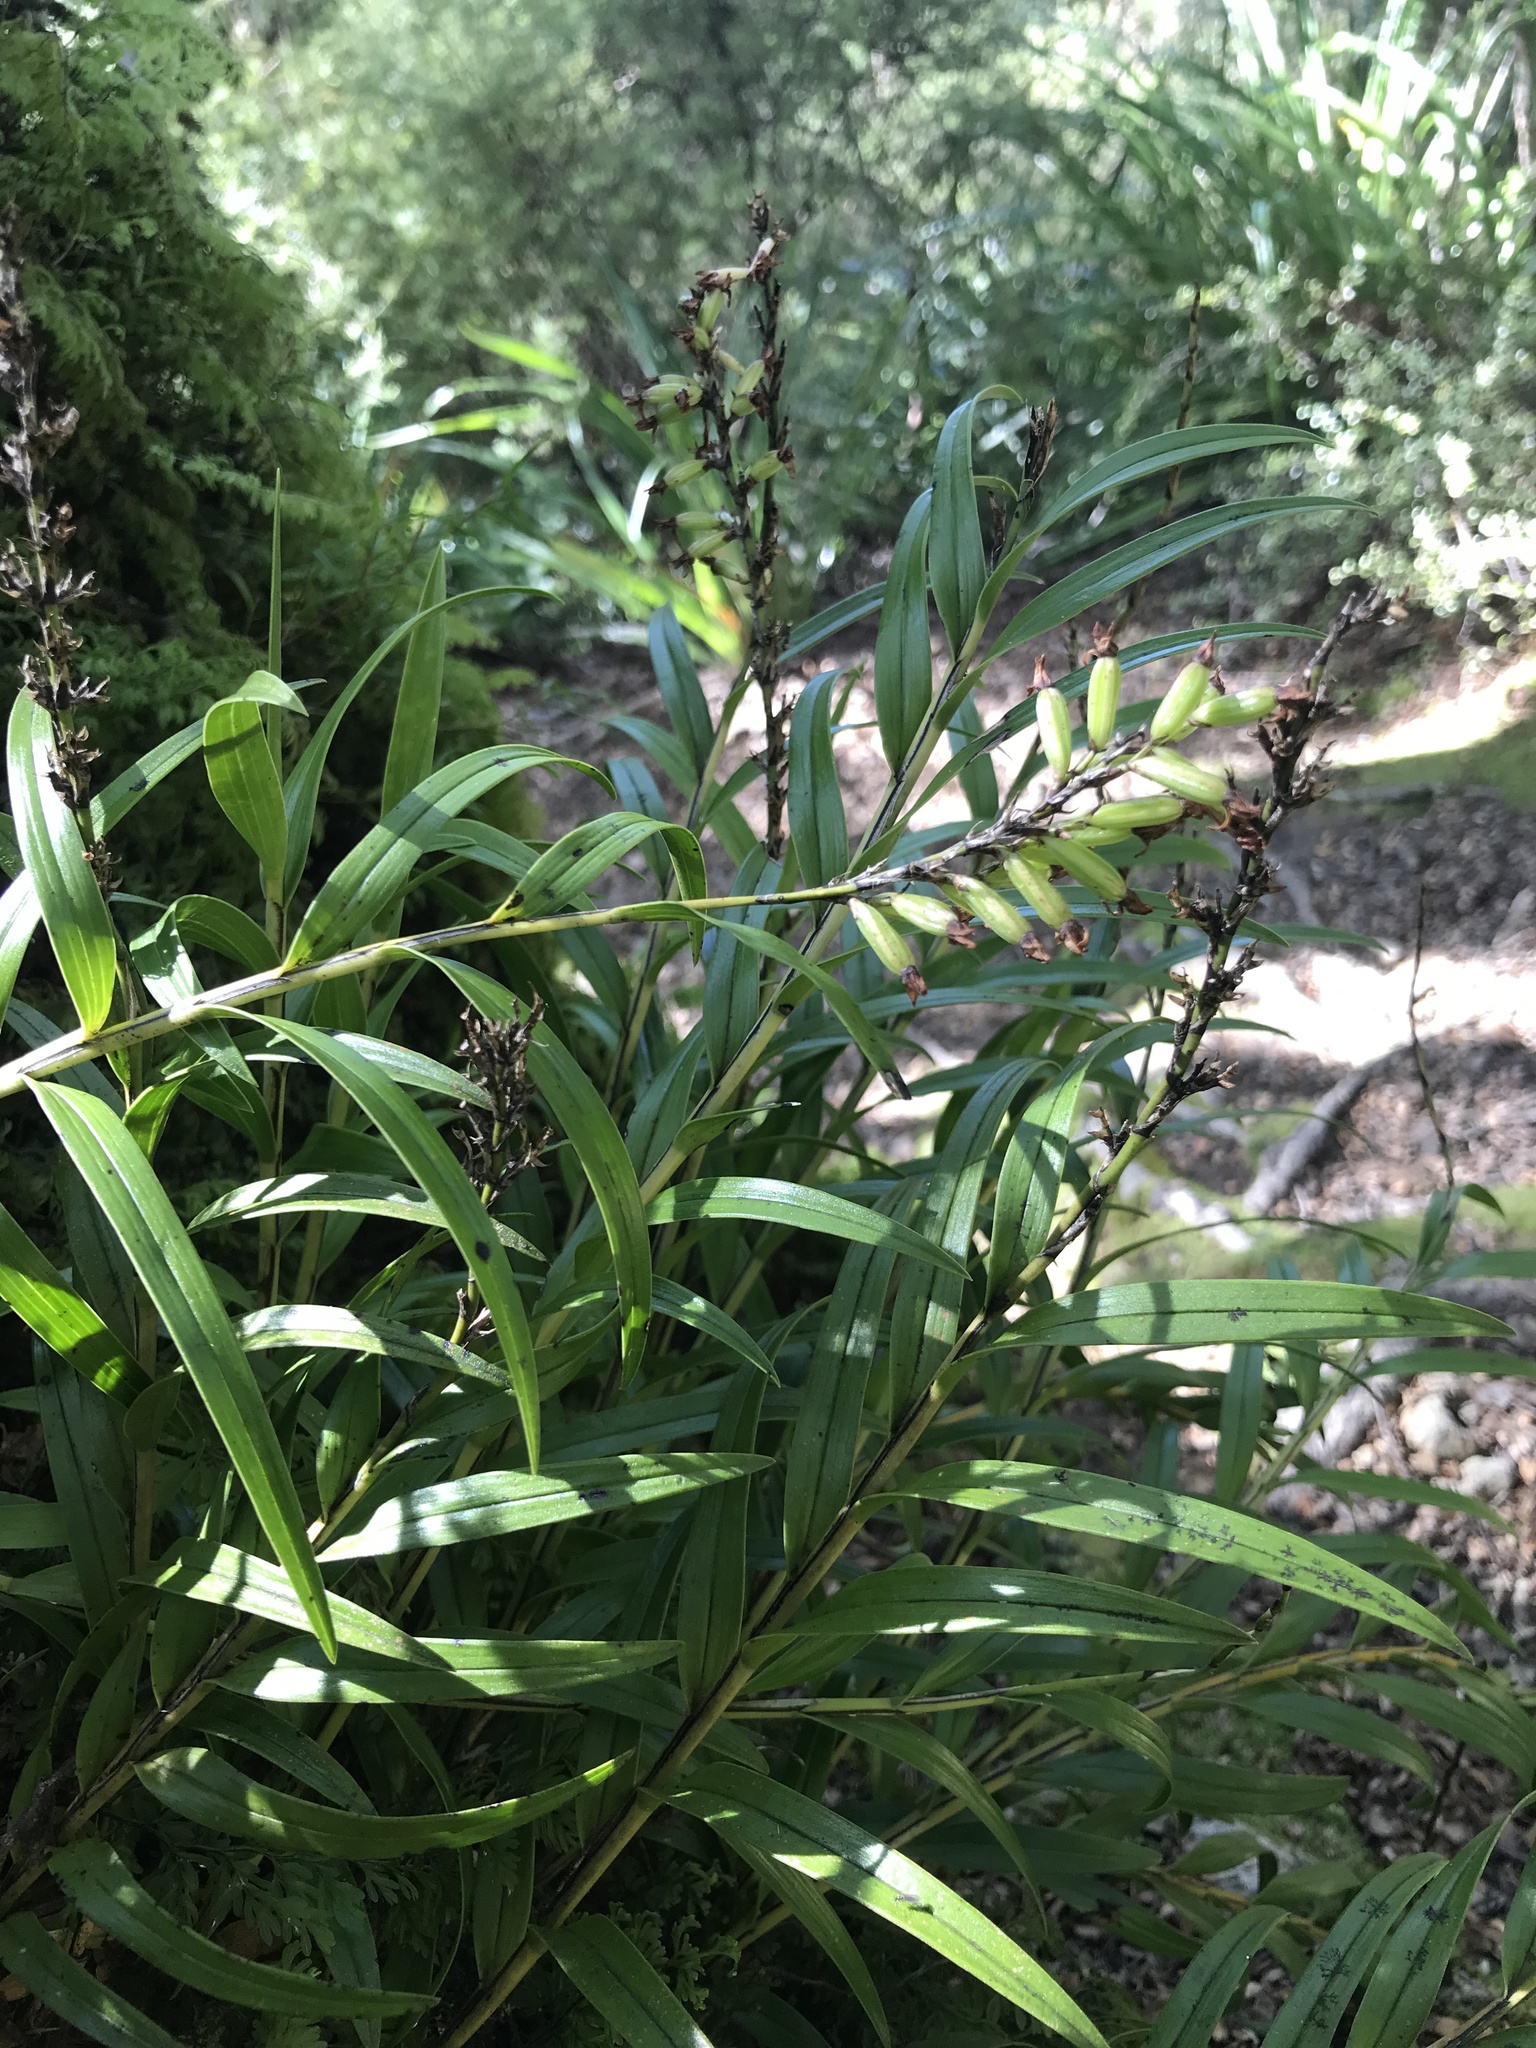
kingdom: Plantae
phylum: Tracheophyta
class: Liliopsida
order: Asparagales
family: Orchidaceae
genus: Earina
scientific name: Earina autumnalis
